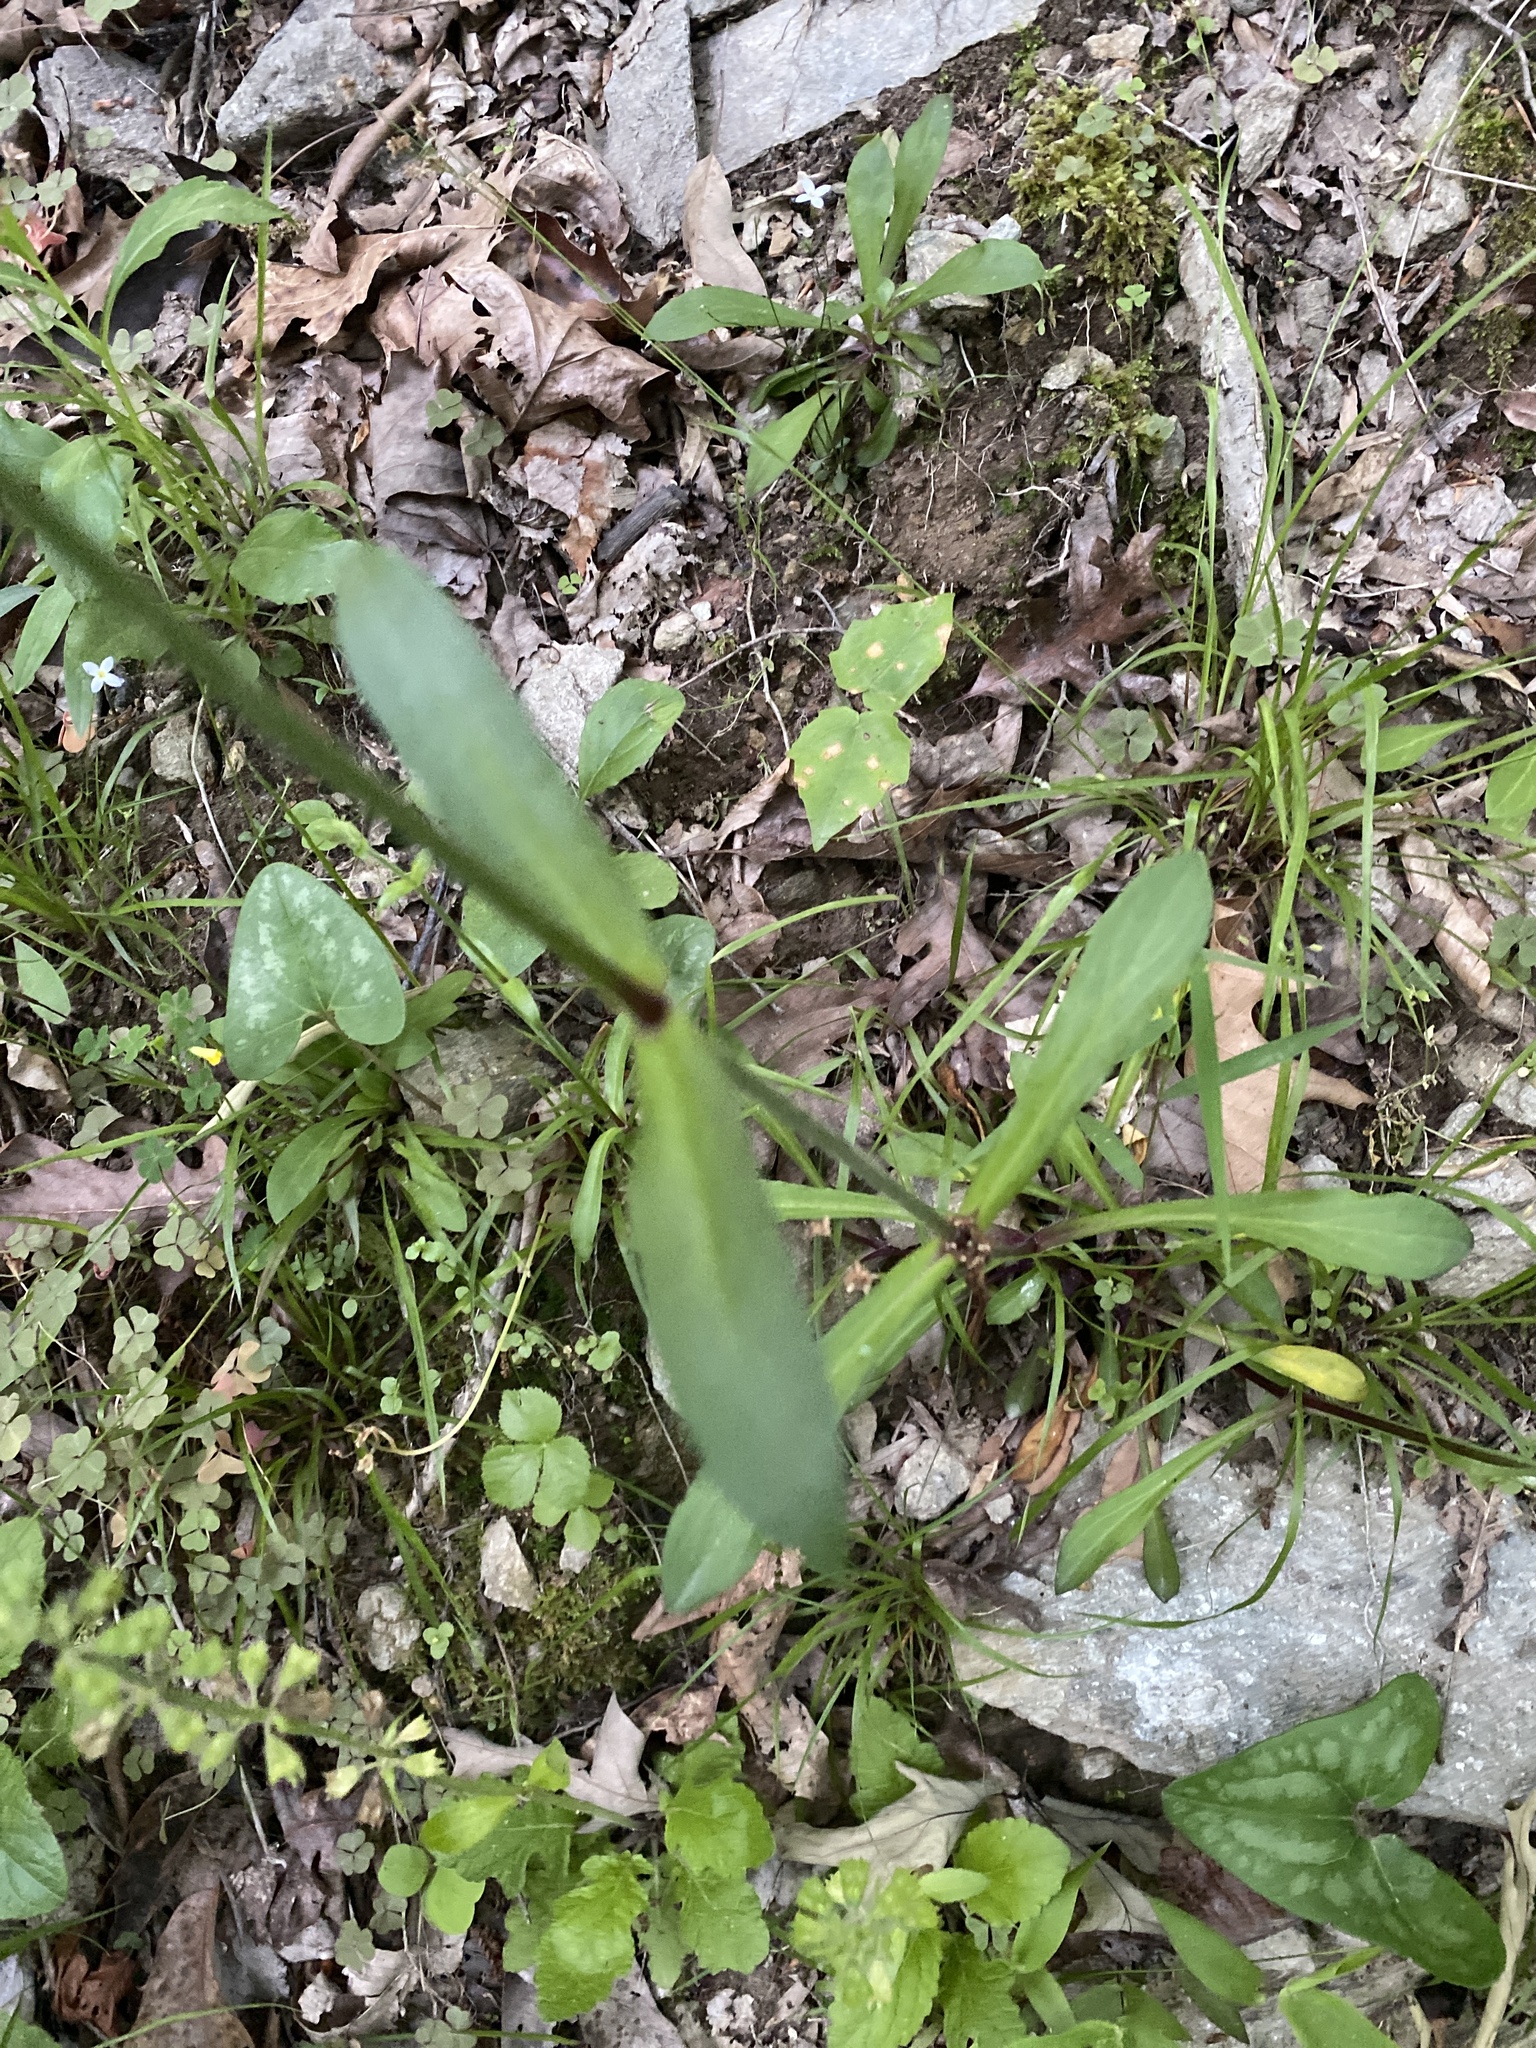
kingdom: Plantae
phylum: Tracheophyta
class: Magnoliopsida
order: Caryophyllales
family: Caryophyllaceae
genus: Silene
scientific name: Silene virginica
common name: Fire-pink
